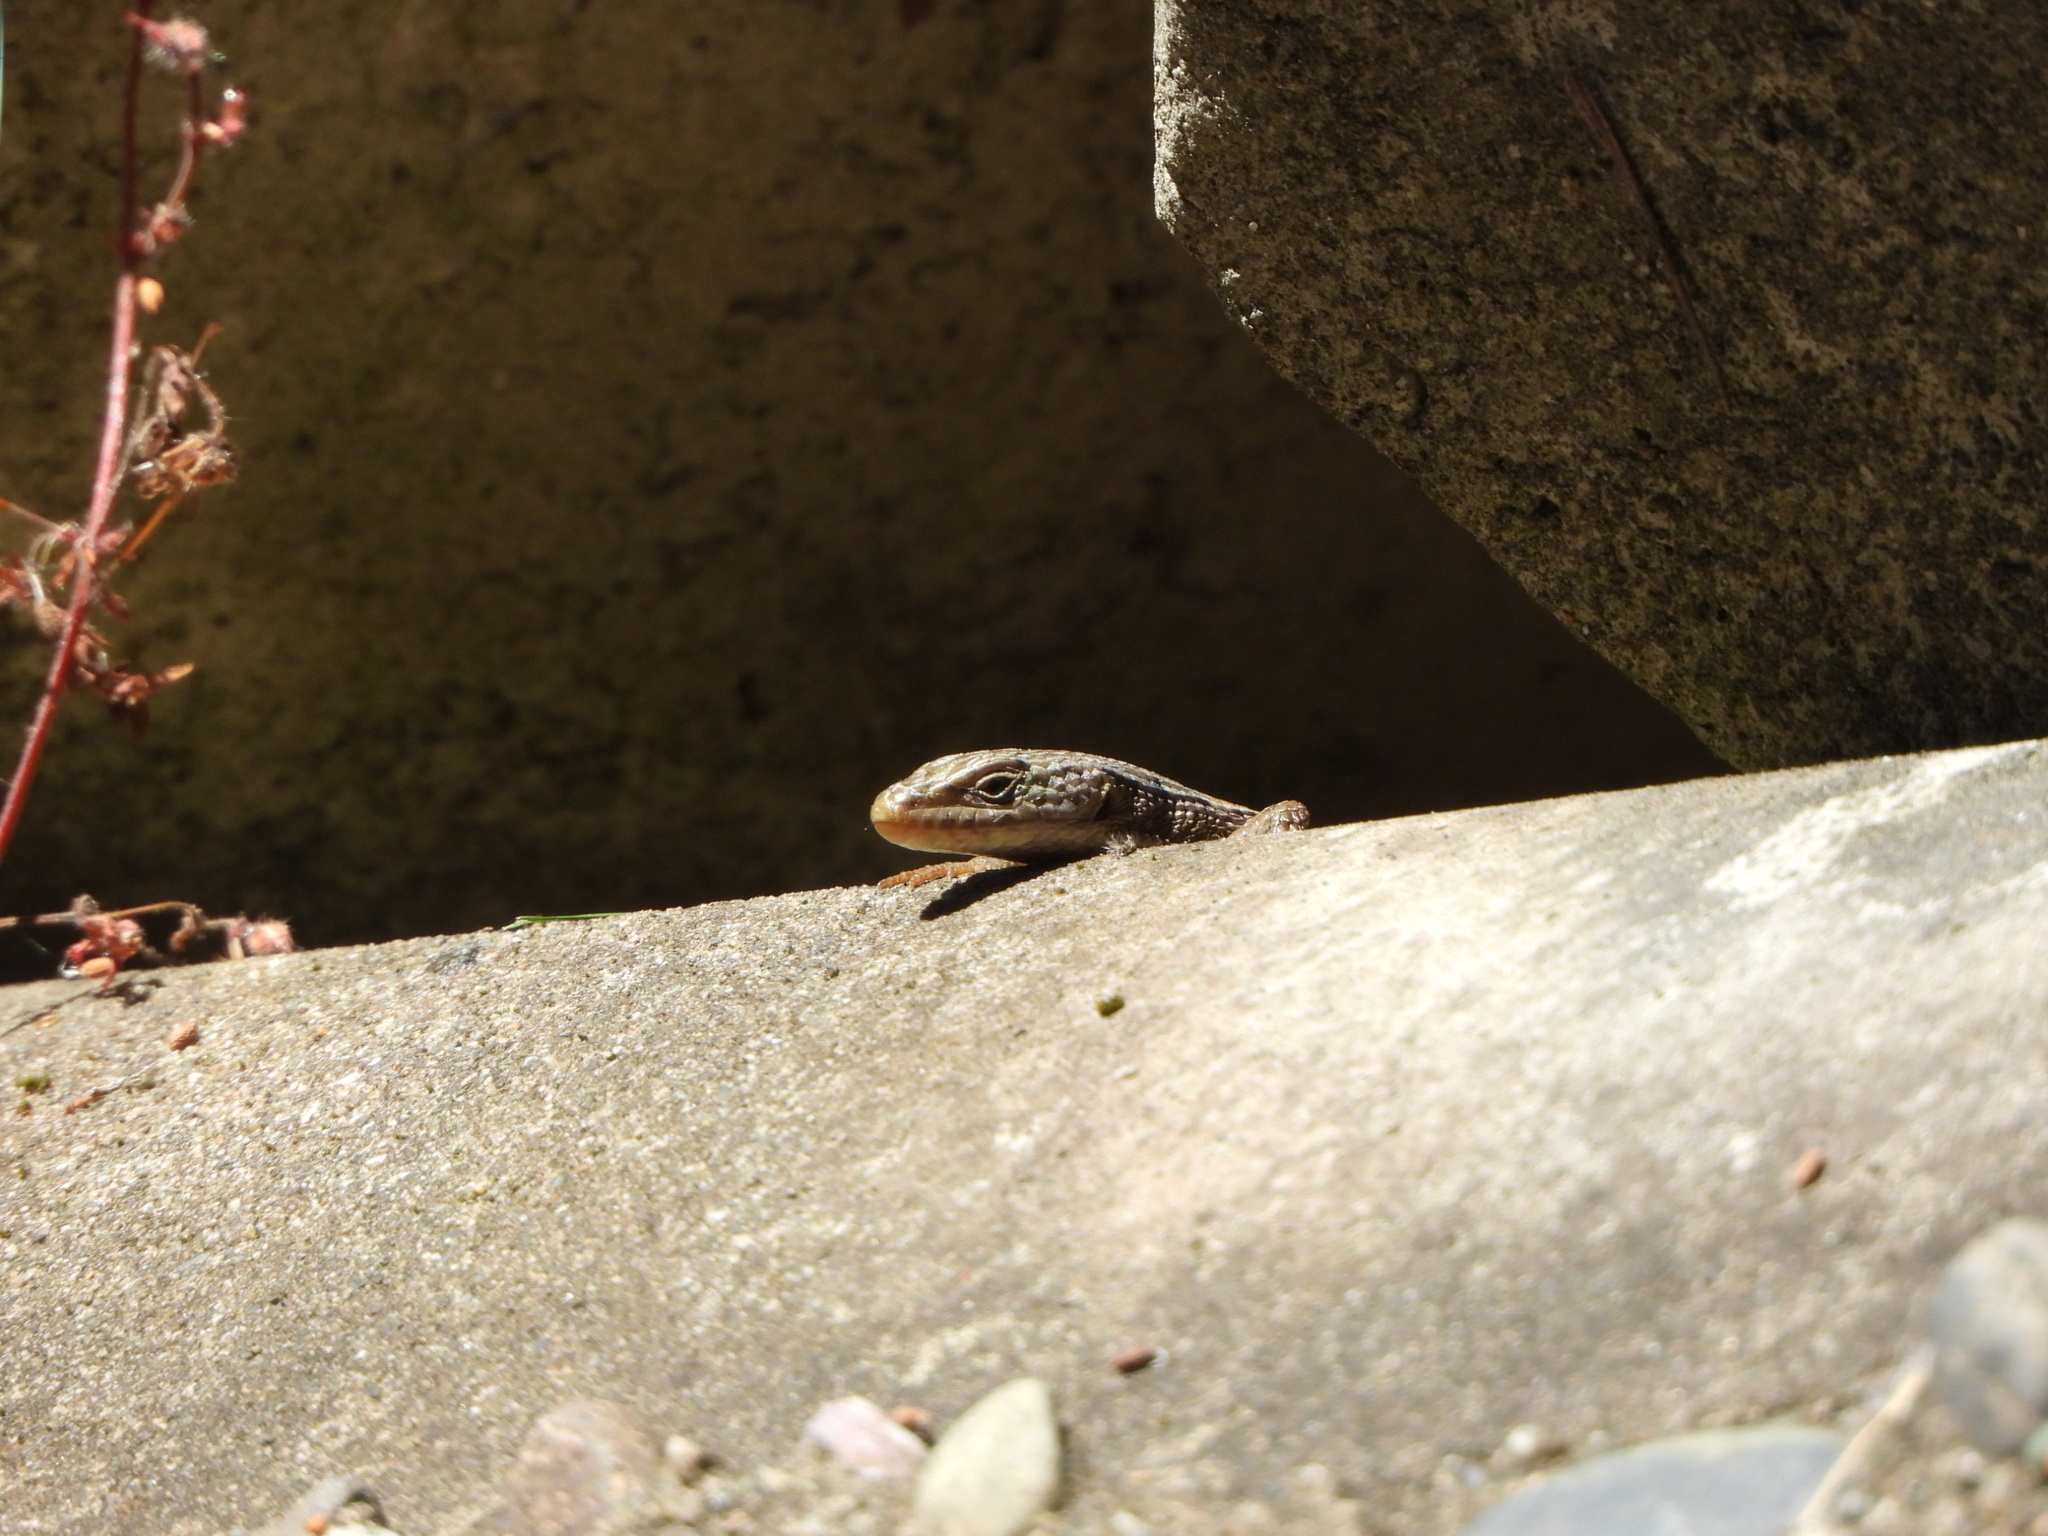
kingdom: Animalia
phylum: Chordata
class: Squamata
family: Anguidae
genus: Elgaria
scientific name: Elgaria coerulea
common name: Northern alligator lizard
